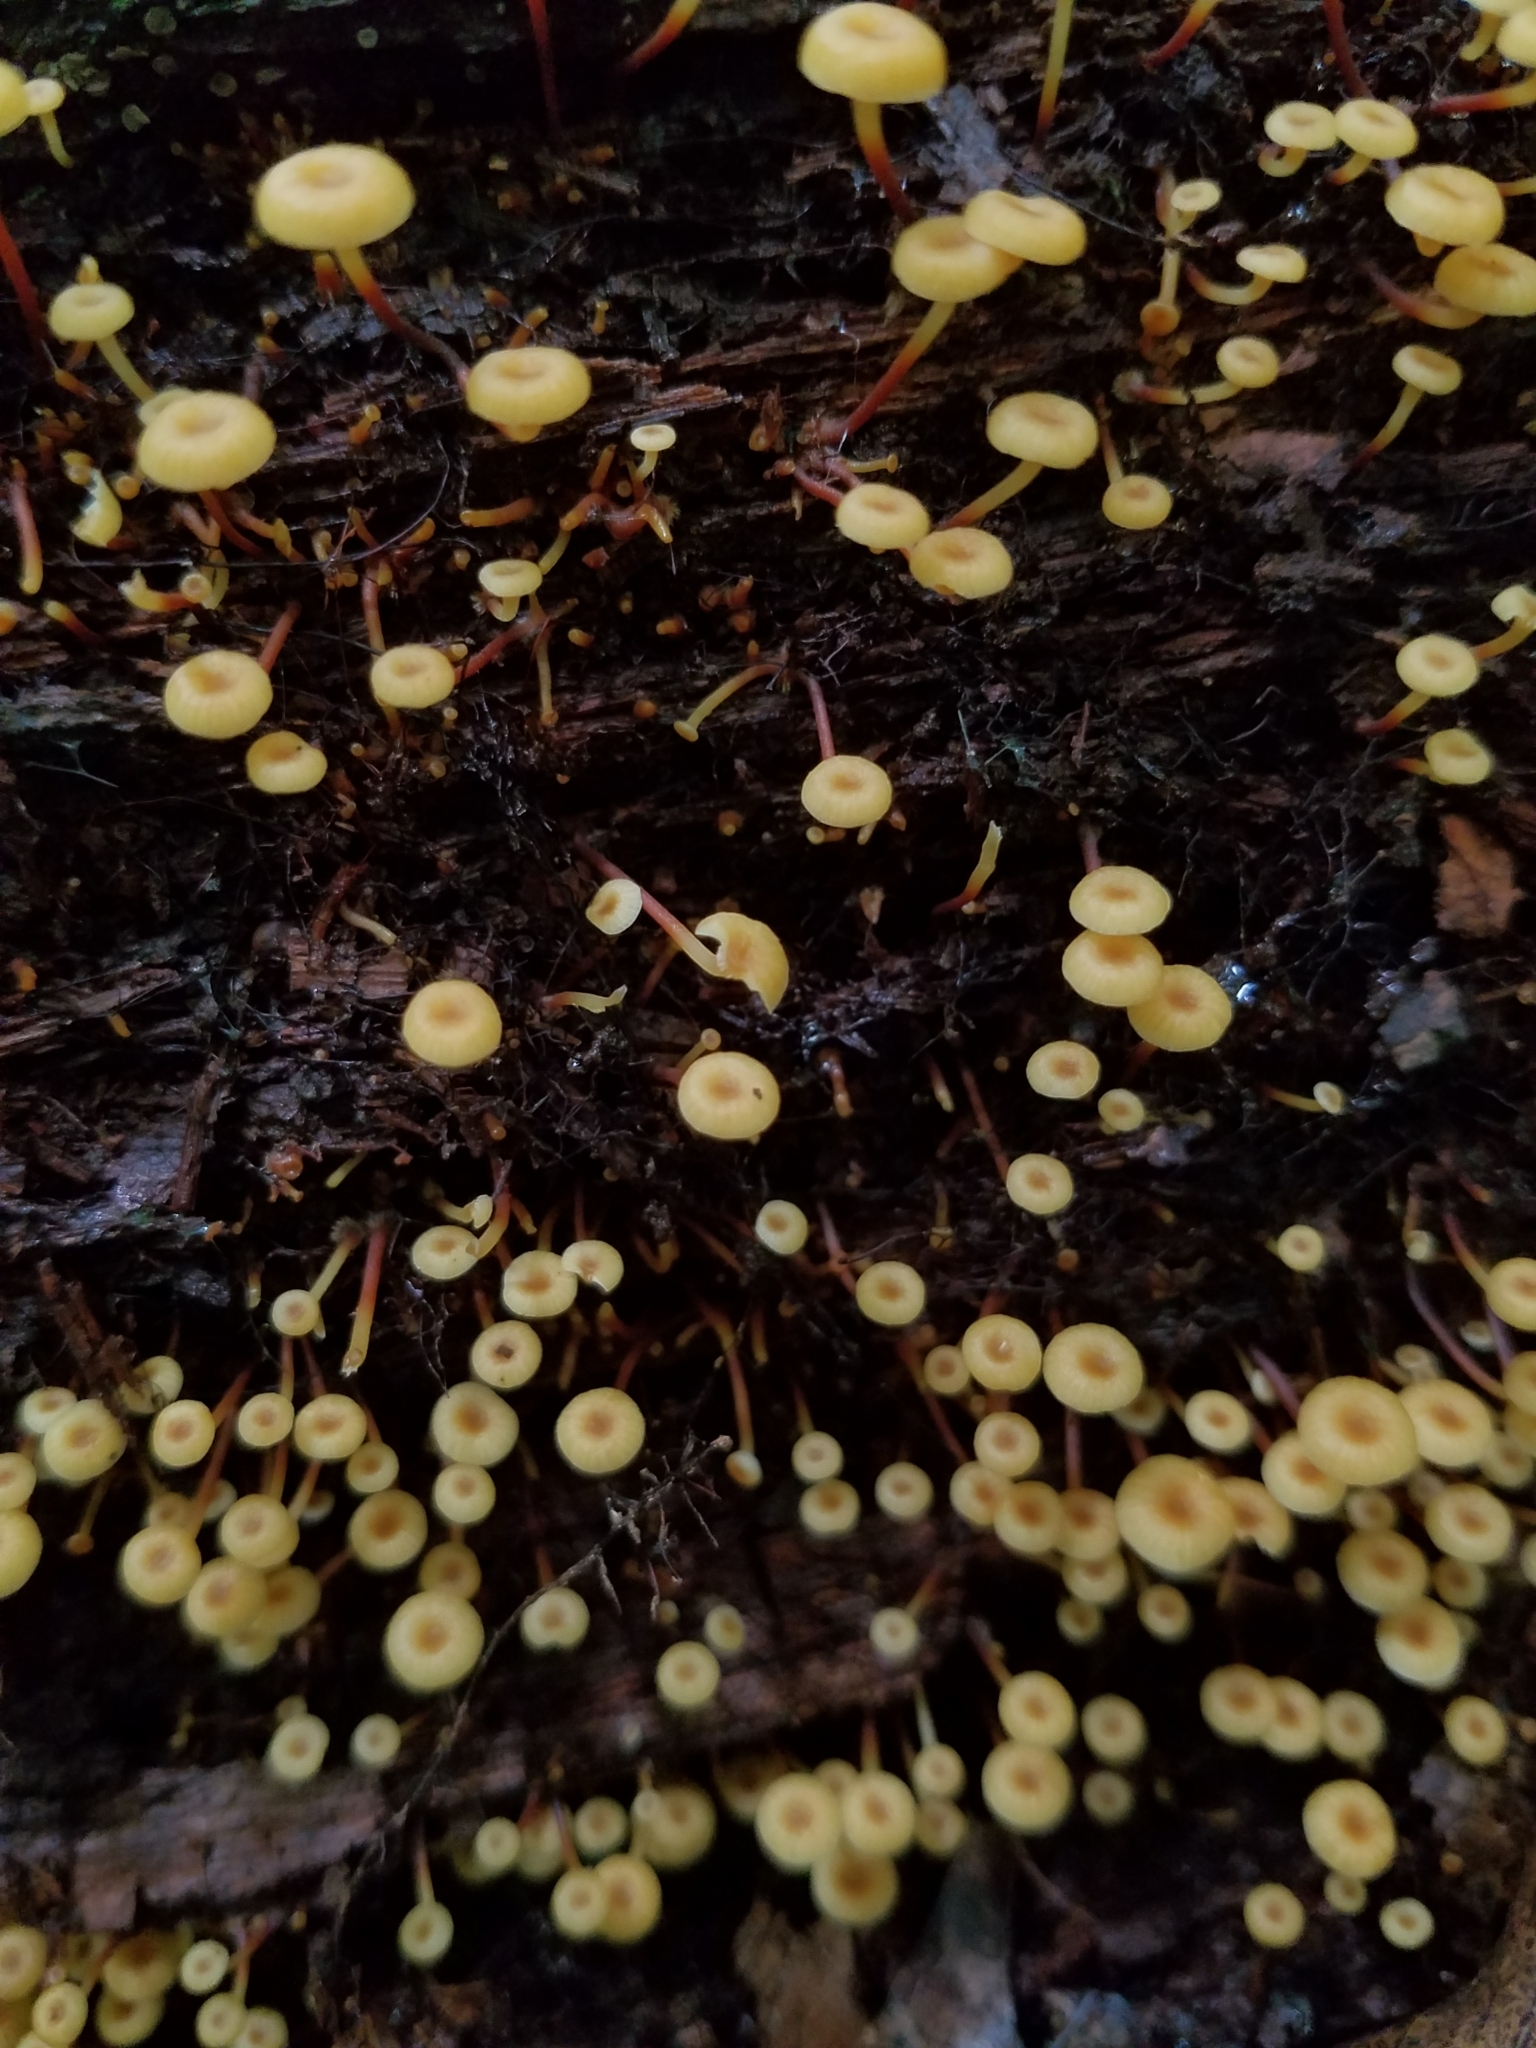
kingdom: Fungi
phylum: Basidiomycota
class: Agaricomycetes
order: Agaricales
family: Mycenaceae
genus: Xeromphalina
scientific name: Xeromphalina kauffmanii
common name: Cross-veined troop mushroom
